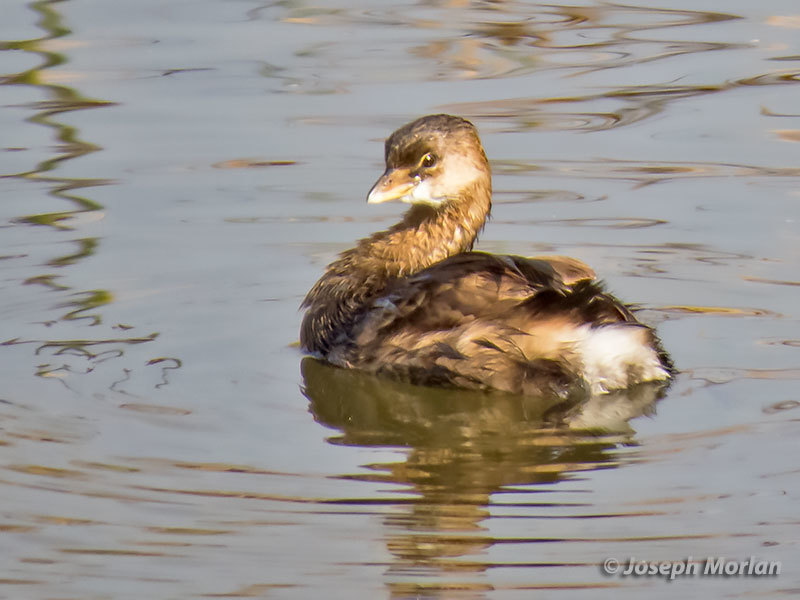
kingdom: Animalia
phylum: Chordata
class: Aves
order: Podicipediformes
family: Podicipedidae
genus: Podilymbus
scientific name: Podilymbus podiceps
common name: Pied-billed grebe
